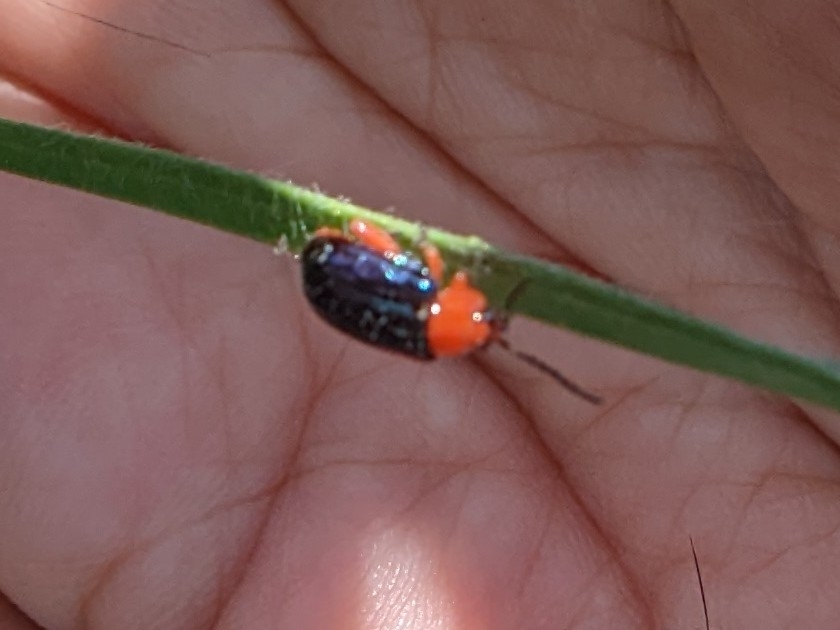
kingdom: Animalia
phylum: Arthropoda
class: Insecta
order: Coleoptera
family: Chrysomelidae
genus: Asphaera
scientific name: Asphaera lustrans
